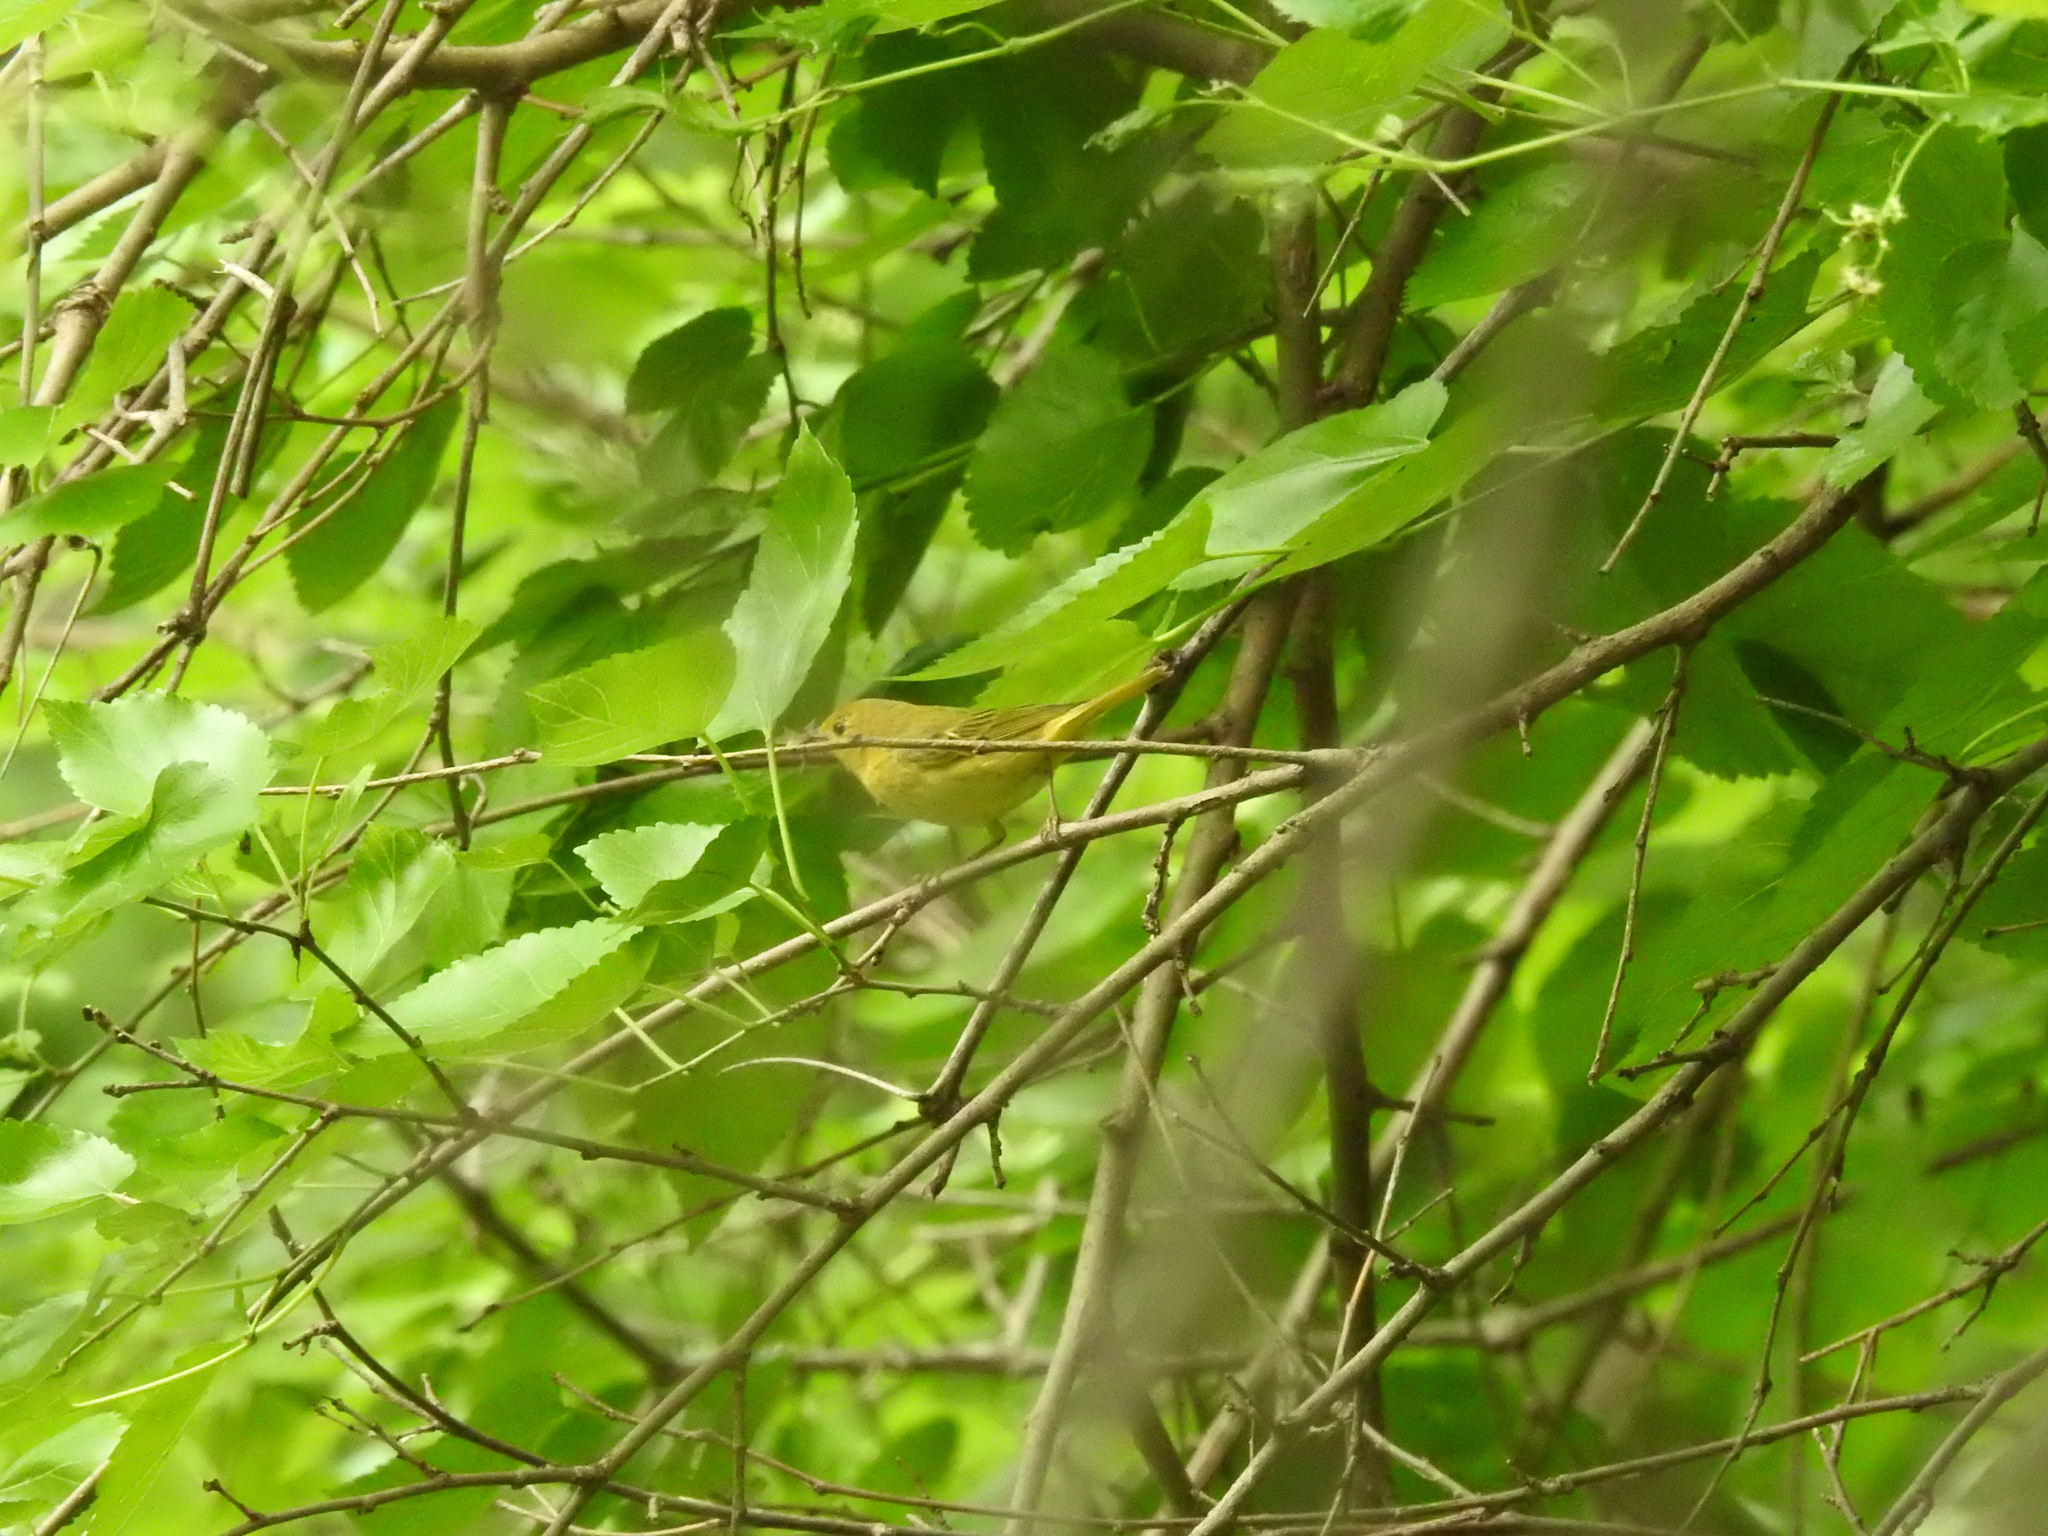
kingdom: Animalia
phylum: Chordata
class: Aves
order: Passeriformes
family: Parulidae
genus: Setophaga
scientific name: Setophaga petechia
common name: Yellow warbler
